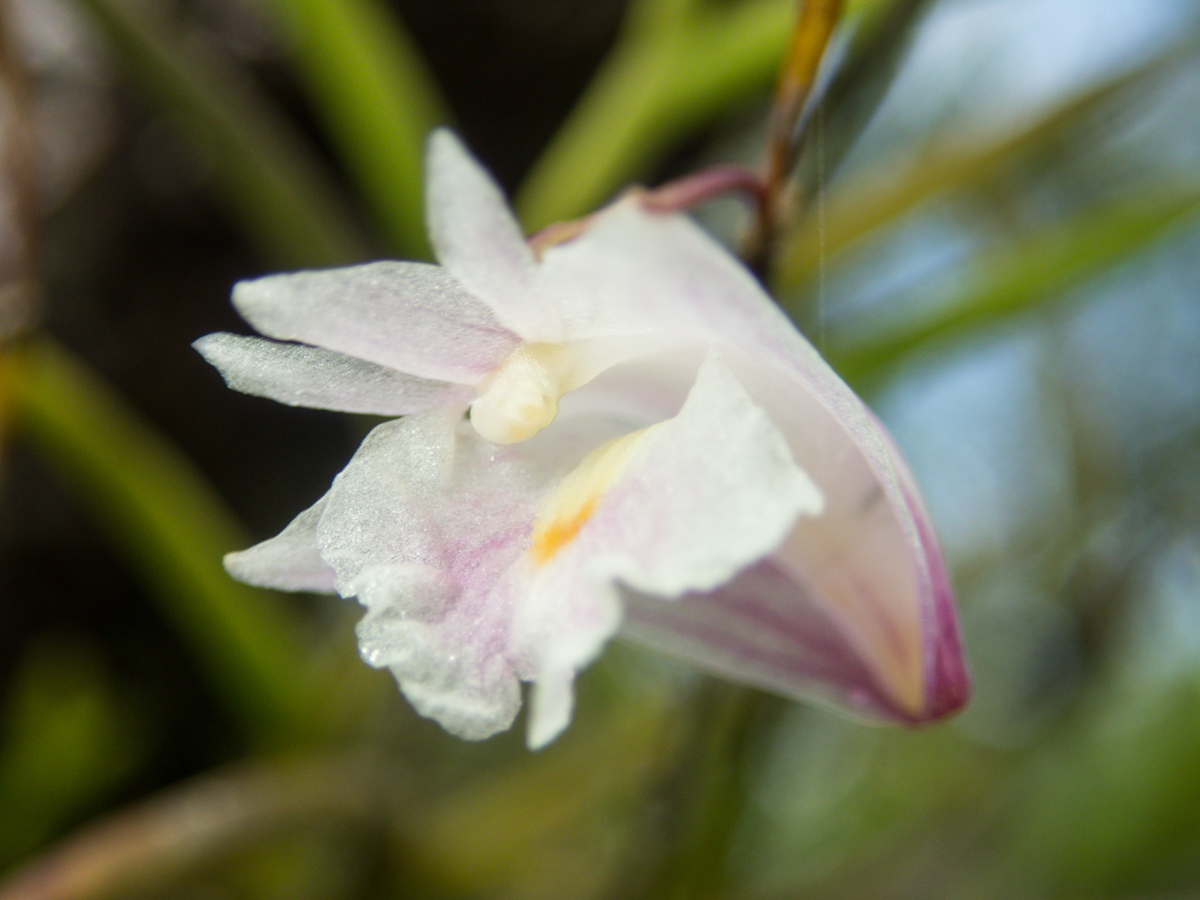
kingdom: Plantae
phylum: Tracheophyta
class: Liliopsida
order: Asparagales
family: Orchidaceae
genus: Dendrobium
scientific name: Dendrobium acerosum
